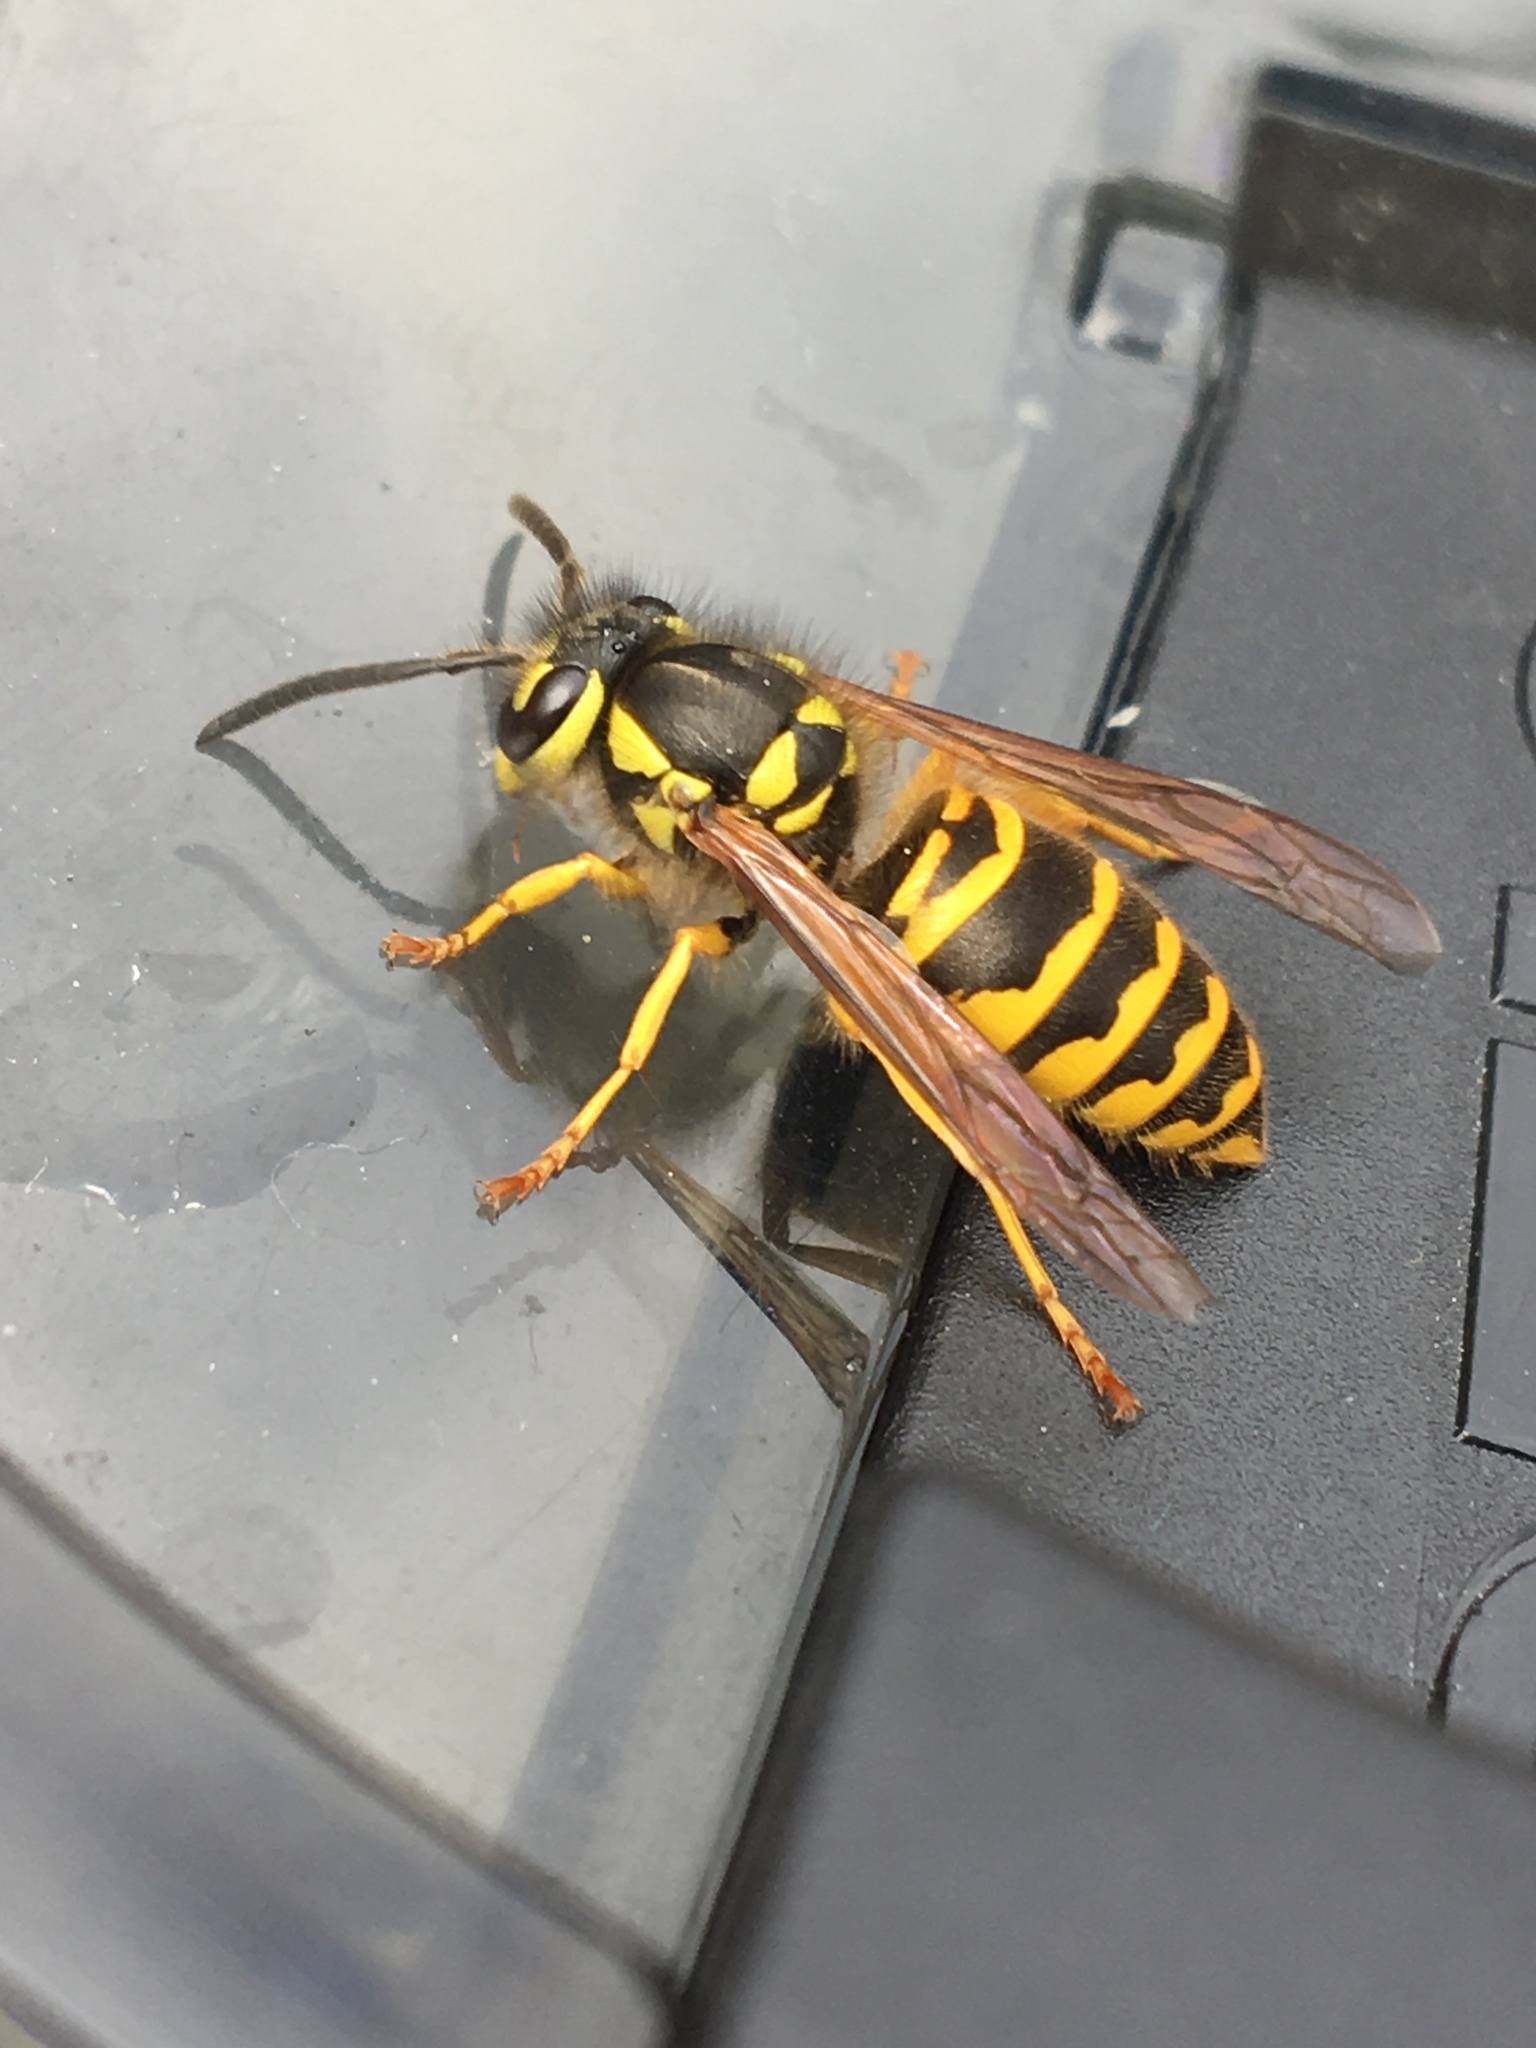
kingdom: Animalia
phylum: Arthropoda
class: Insecta
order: Hymenoptera
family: Vespidae
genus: Vespula
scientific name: Vespula maculifrons
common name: Eastern yellowjacket
